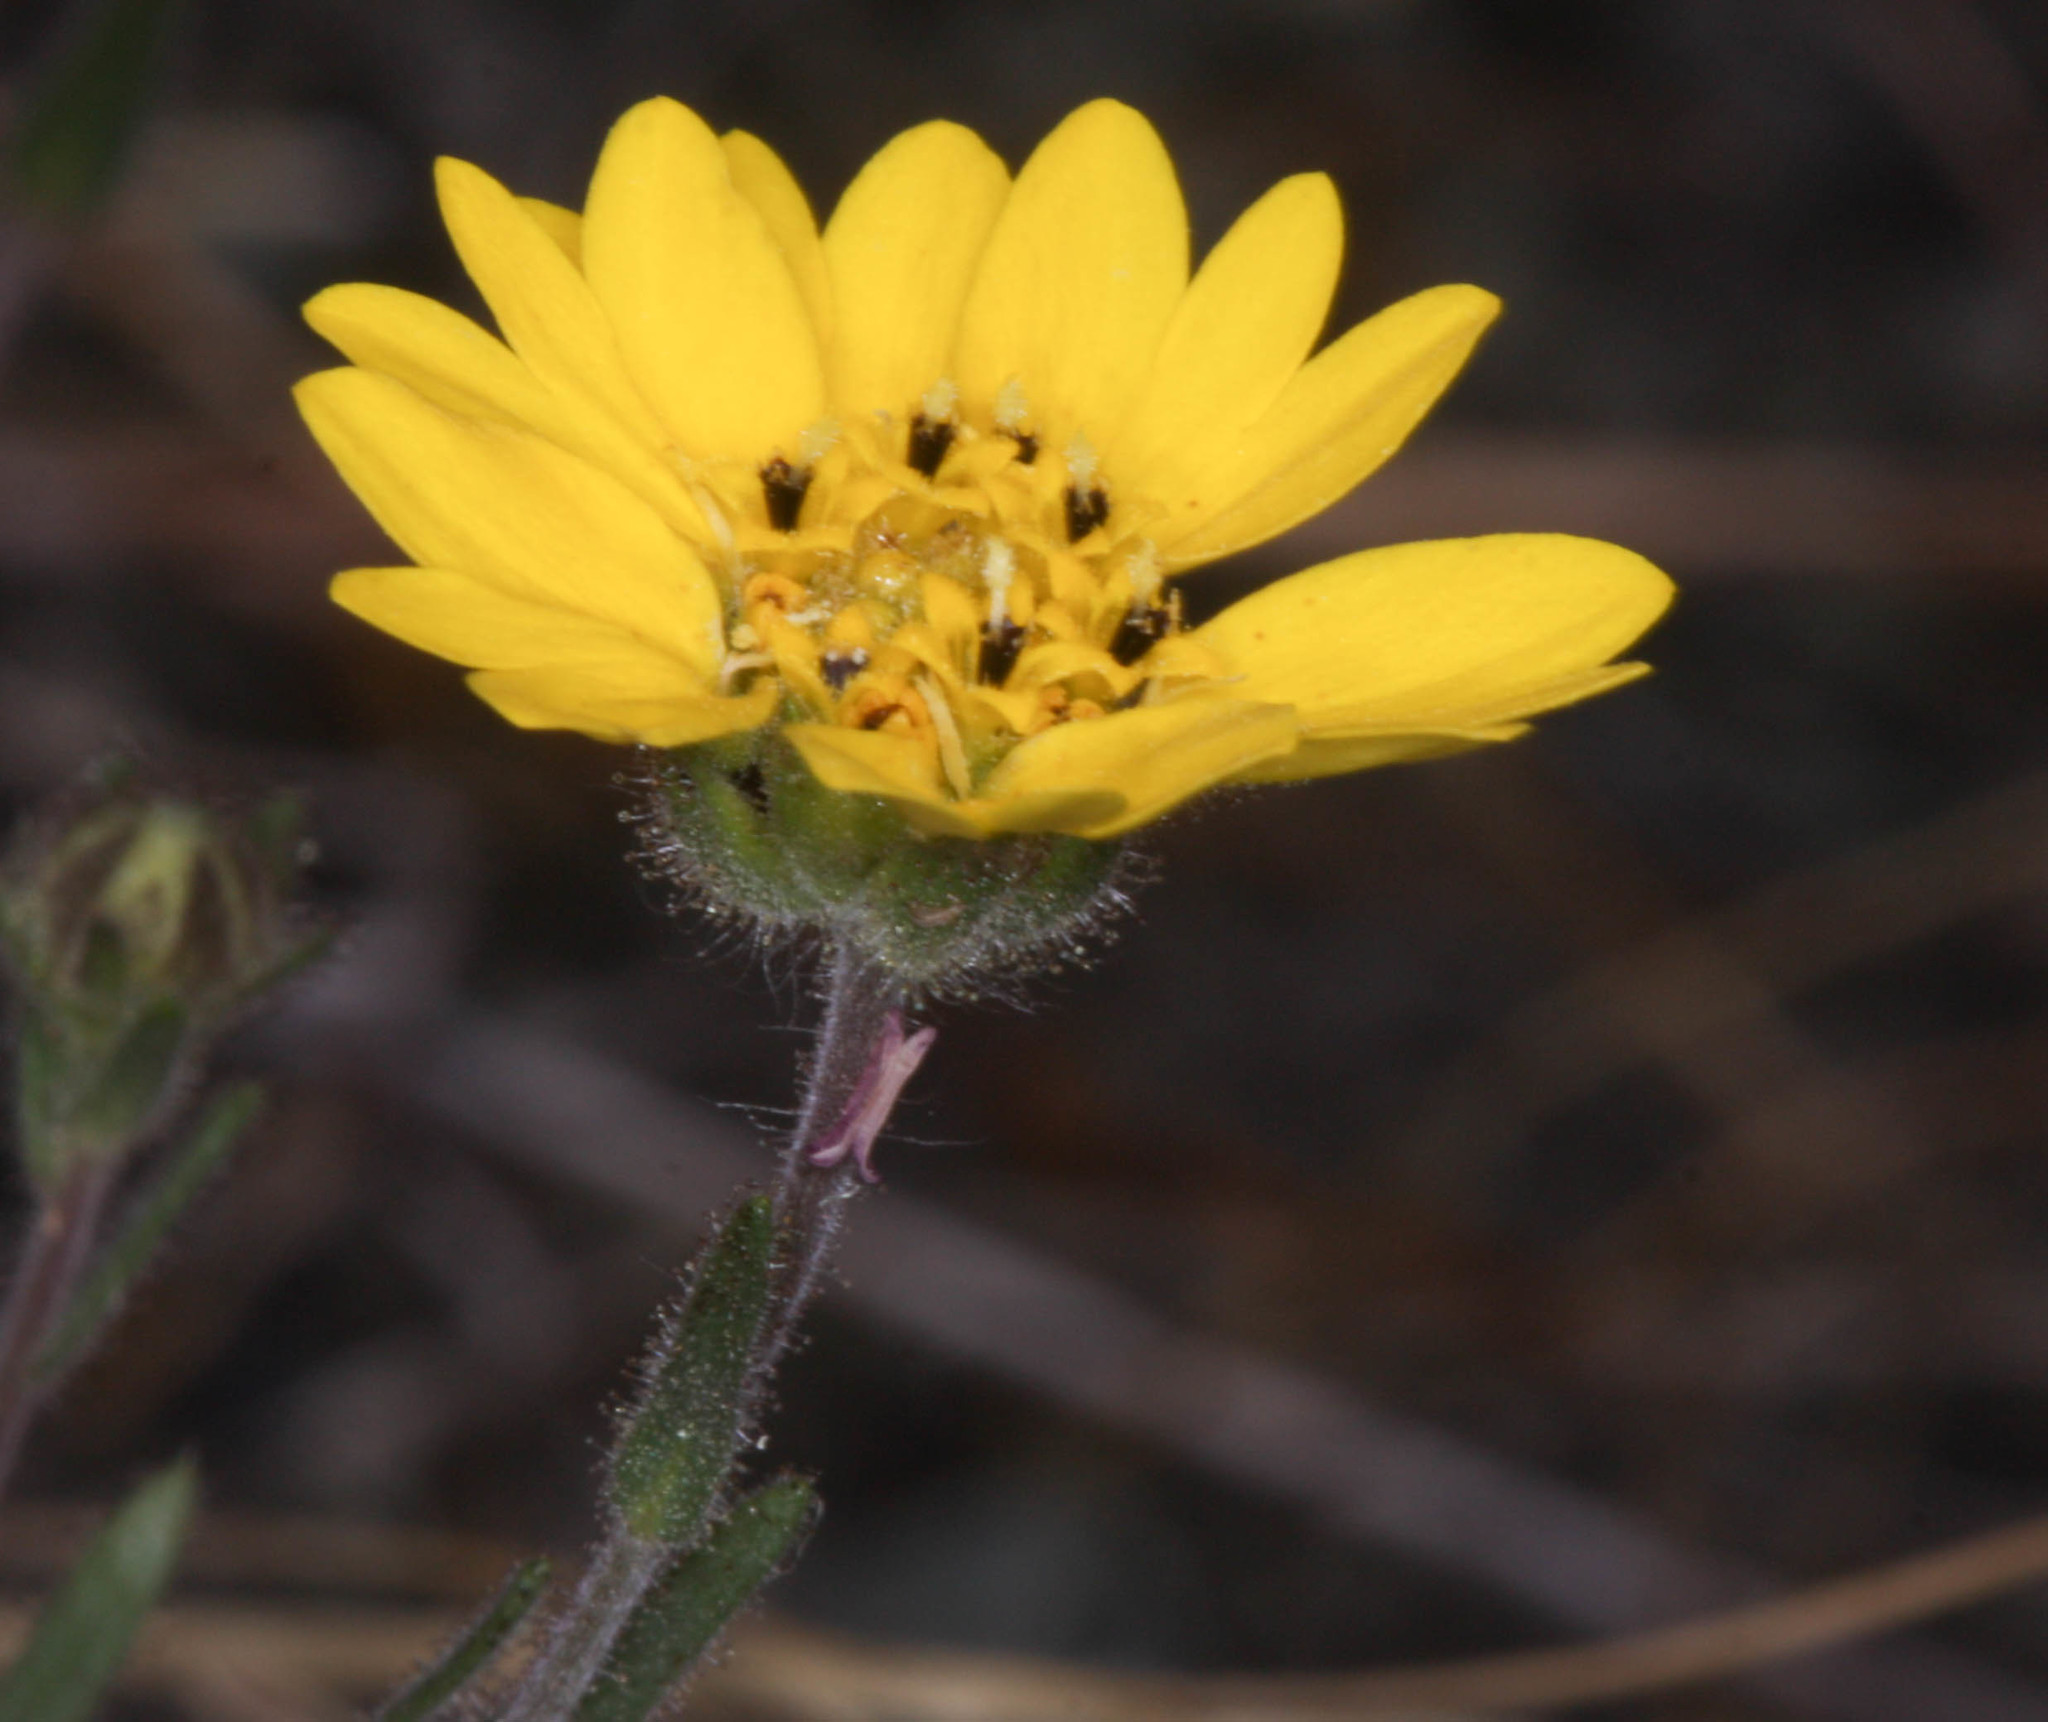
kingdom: Plantae
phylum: Tracheophyta
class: Magnoliopsida
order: Asterales
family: Asteraceae
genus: Hemizonia
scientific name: Hemizonia congesta
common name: Hayfield tarweed
